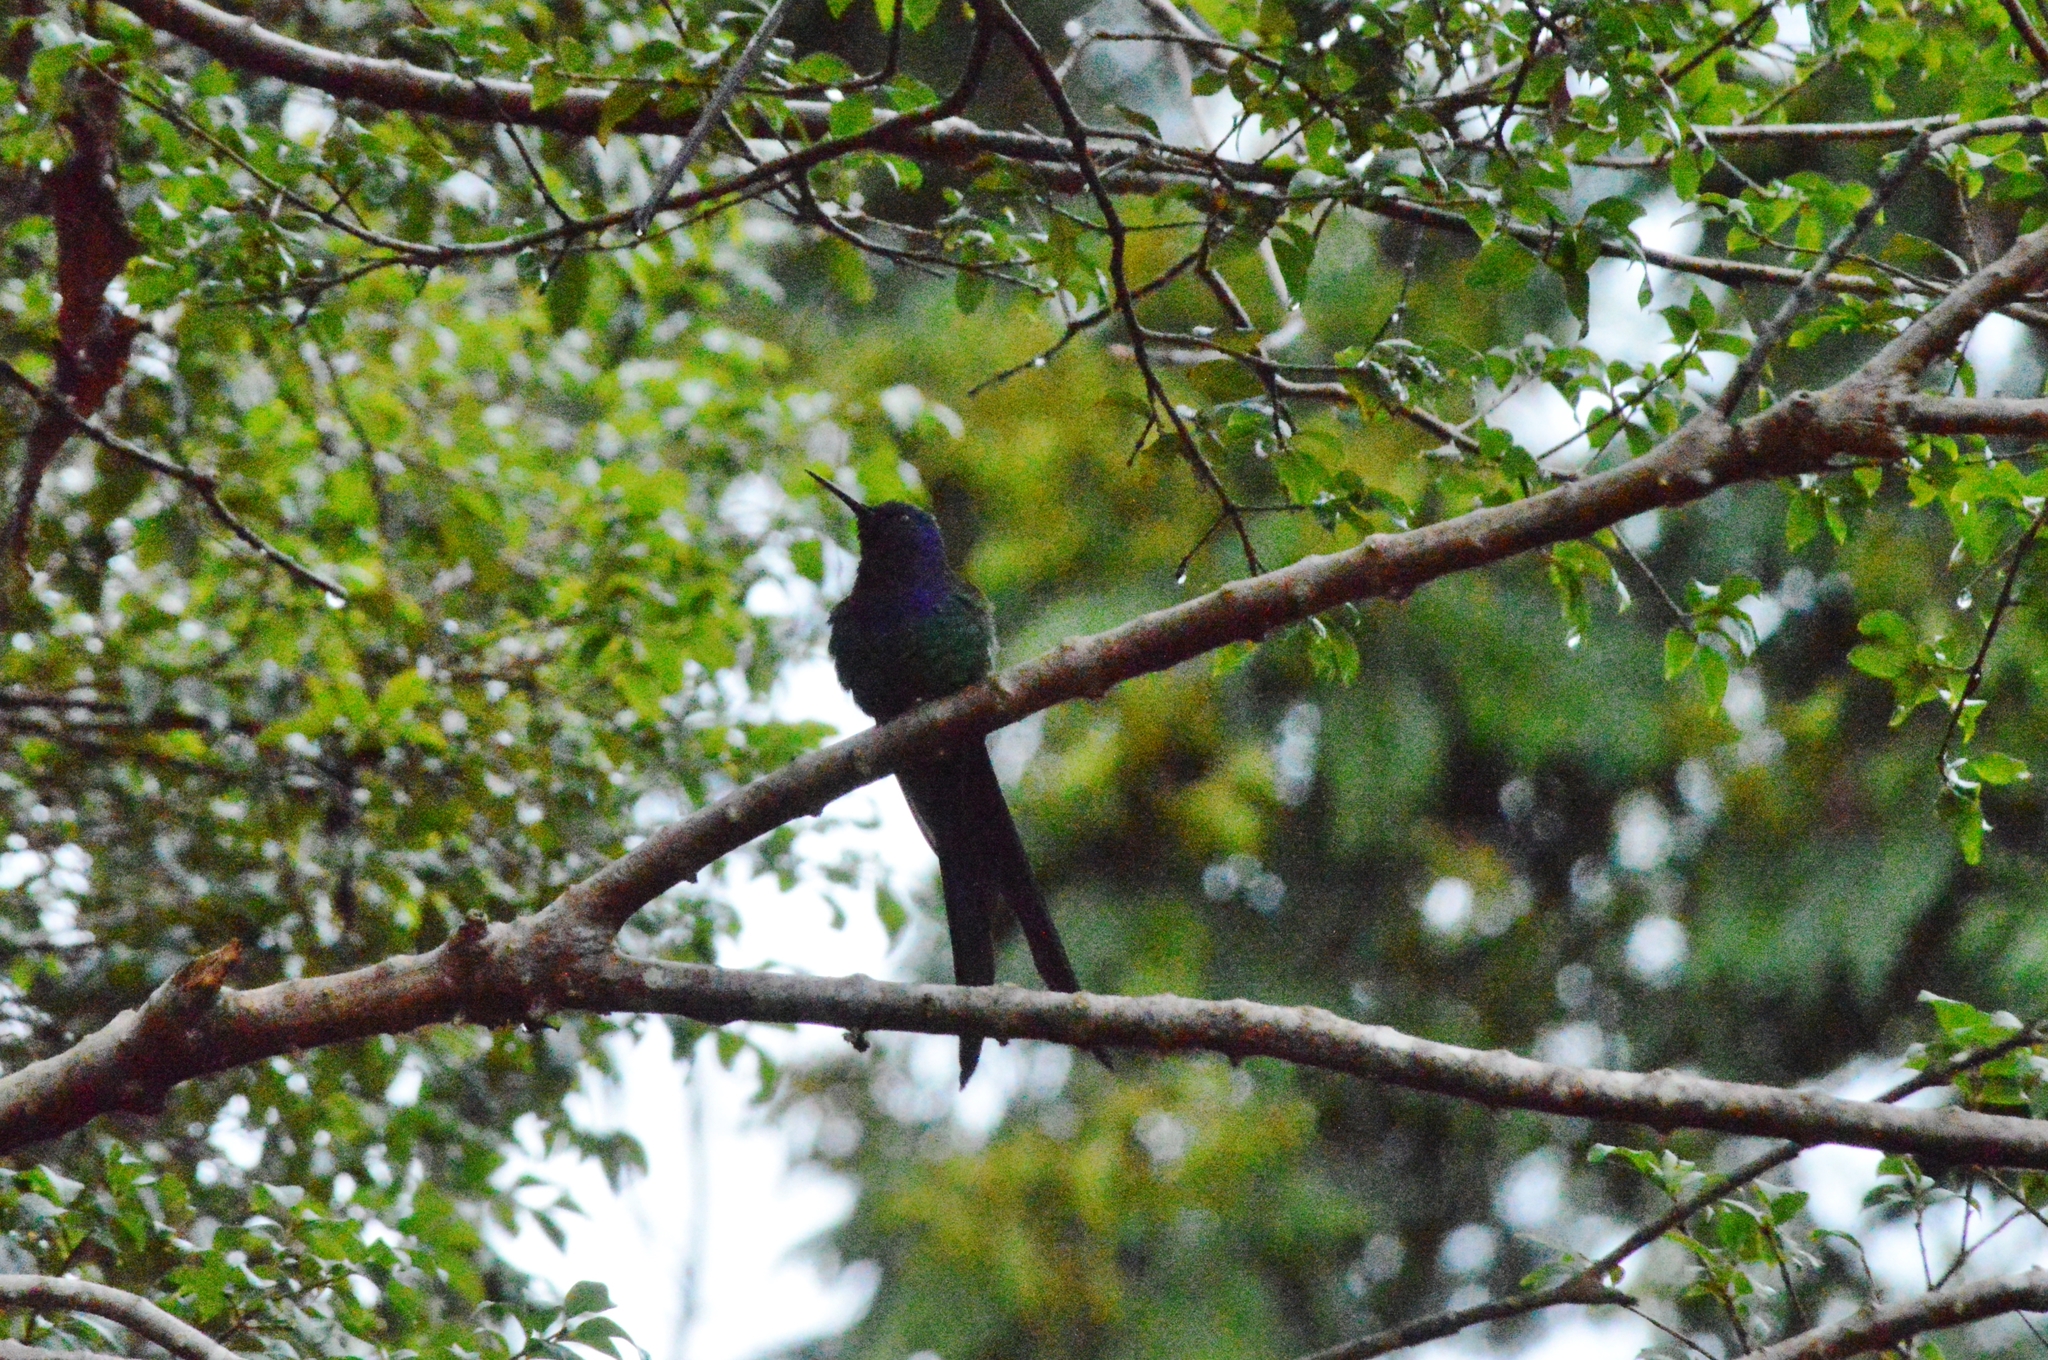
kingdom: Animalia
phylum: Chordata
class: Aves
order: Apodiformes
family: Trochilidae
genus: Eupetomena
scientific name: Eupetomena macroura
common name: Swallow-tailed hummingbird
